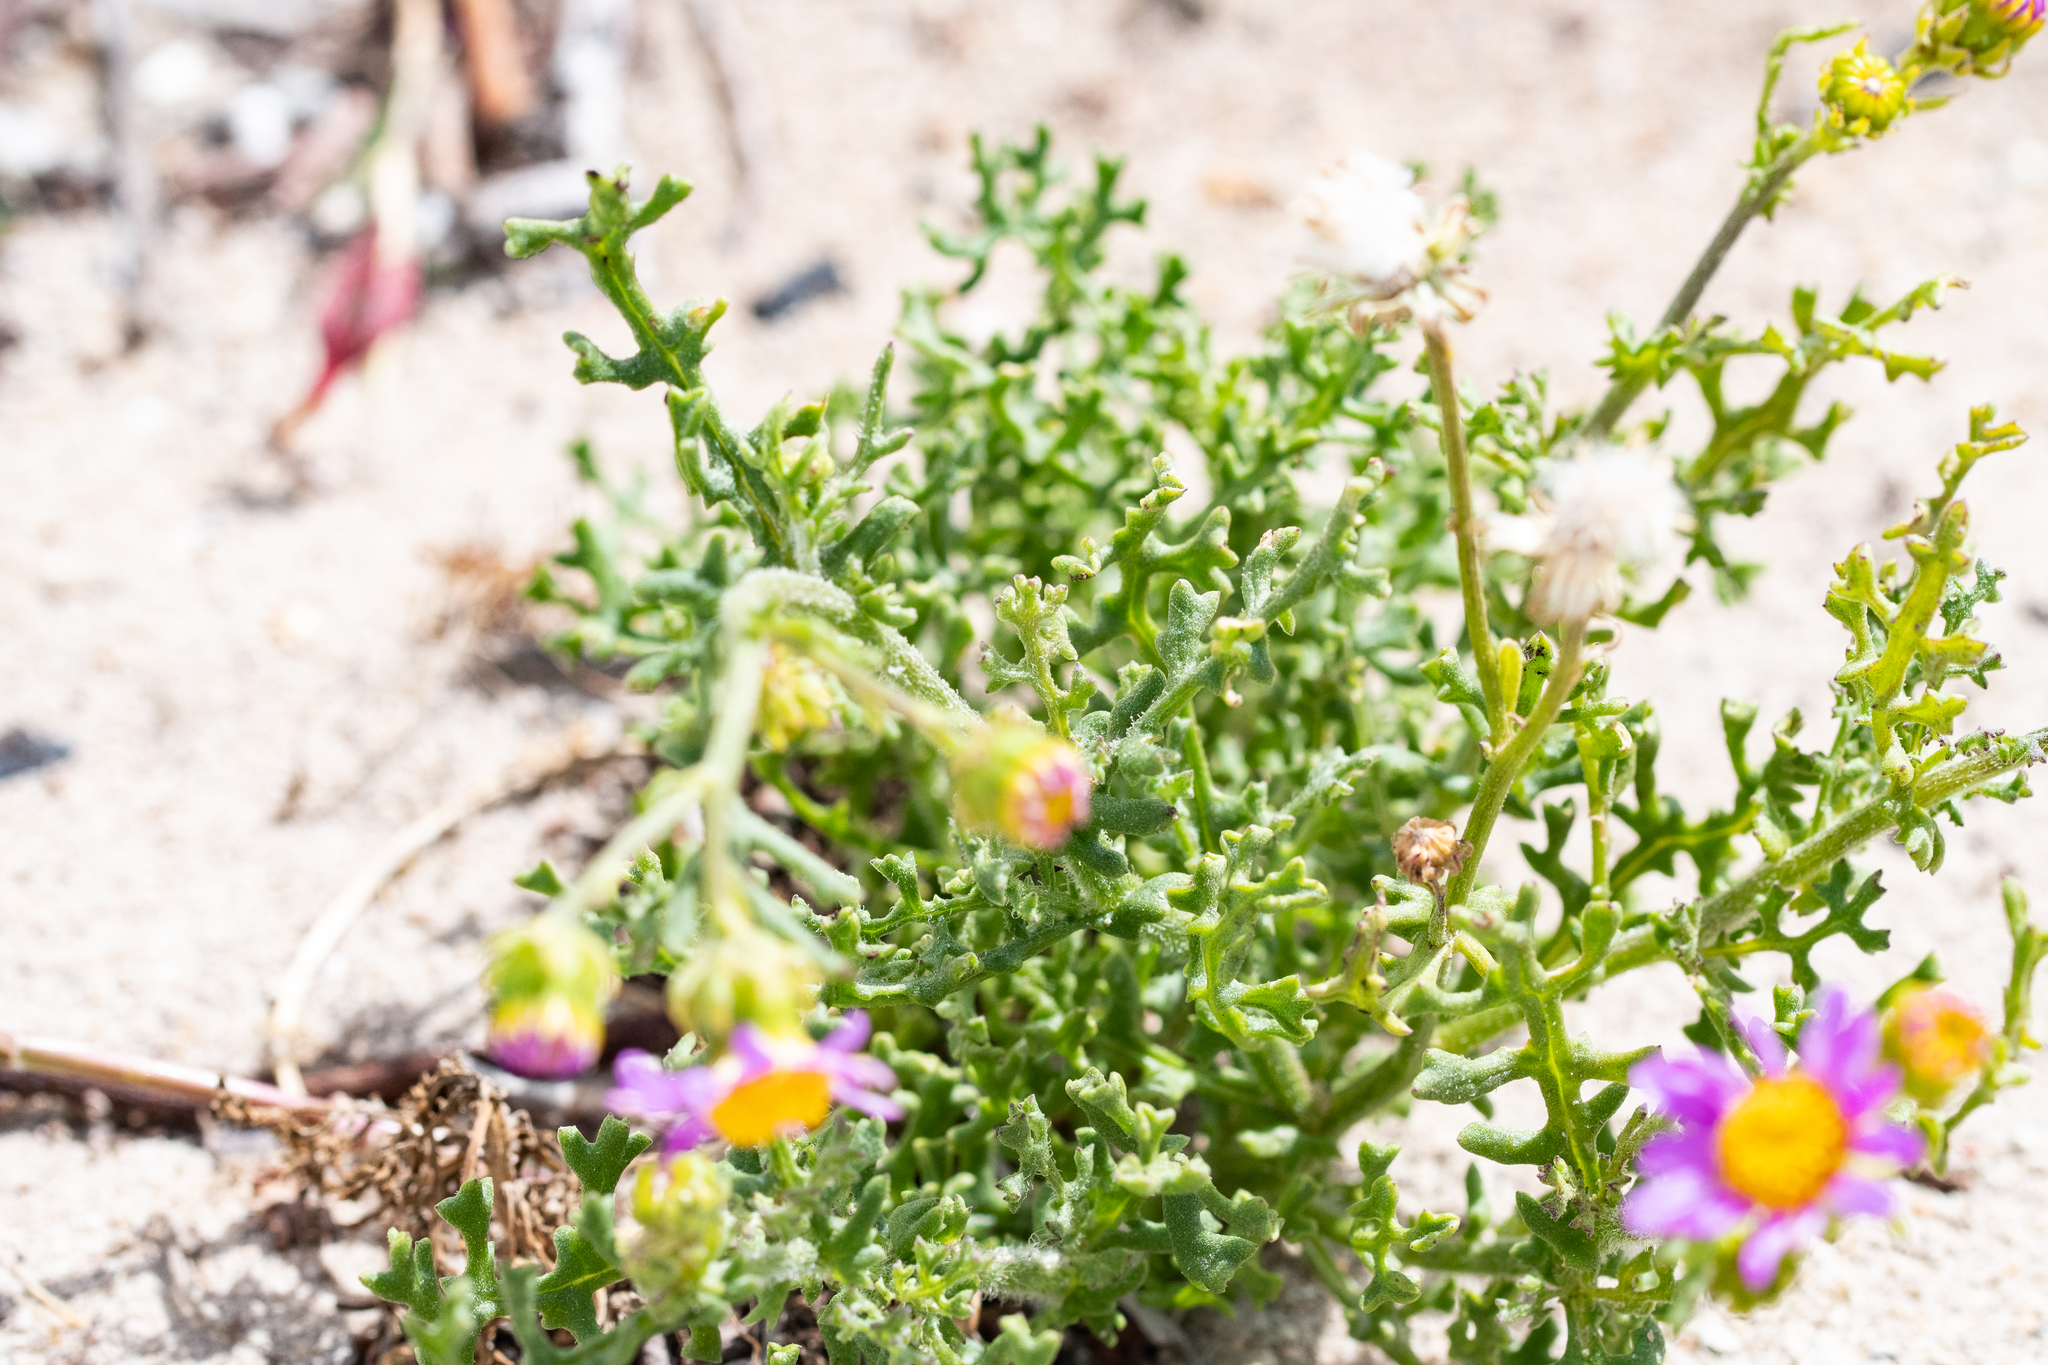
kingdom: Plantae
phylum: Tracheophyta
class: Magnoliopsida
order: Asterales
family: Asteraceae
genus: Senecio
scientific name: Senecio elegans
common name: Purple groundsel
